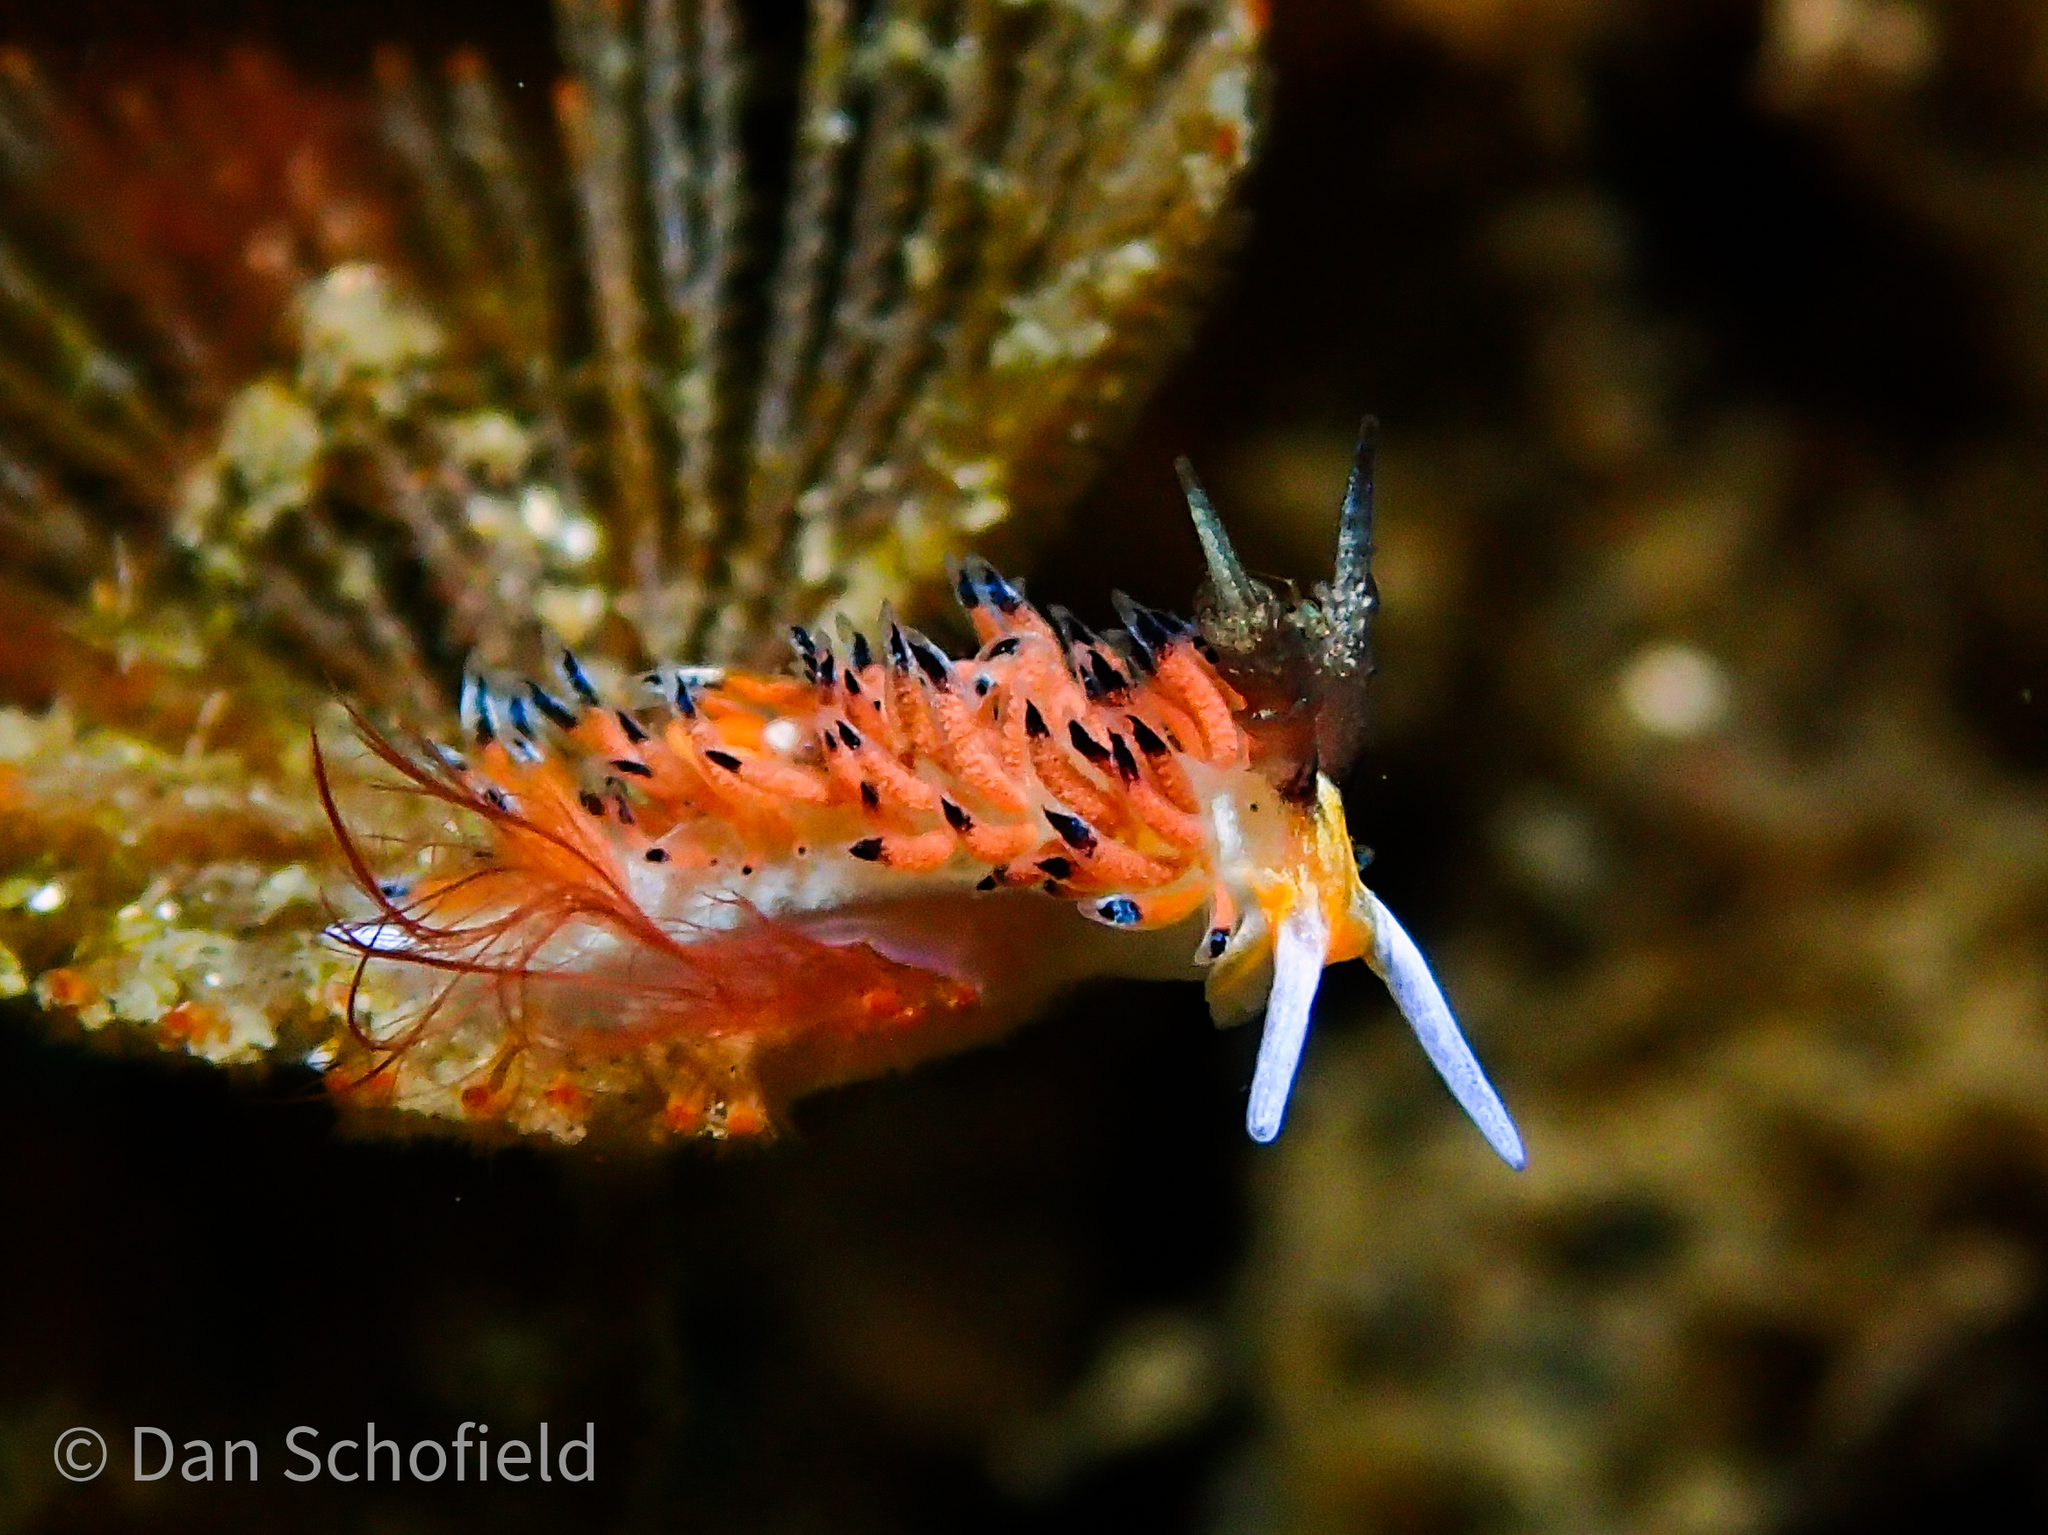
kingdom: Animalia
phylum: Mollusca
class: Gastropoda
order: Nudibranchia
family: Facelinidae
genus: Favorinus
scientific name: Favorinus tsuruganus
